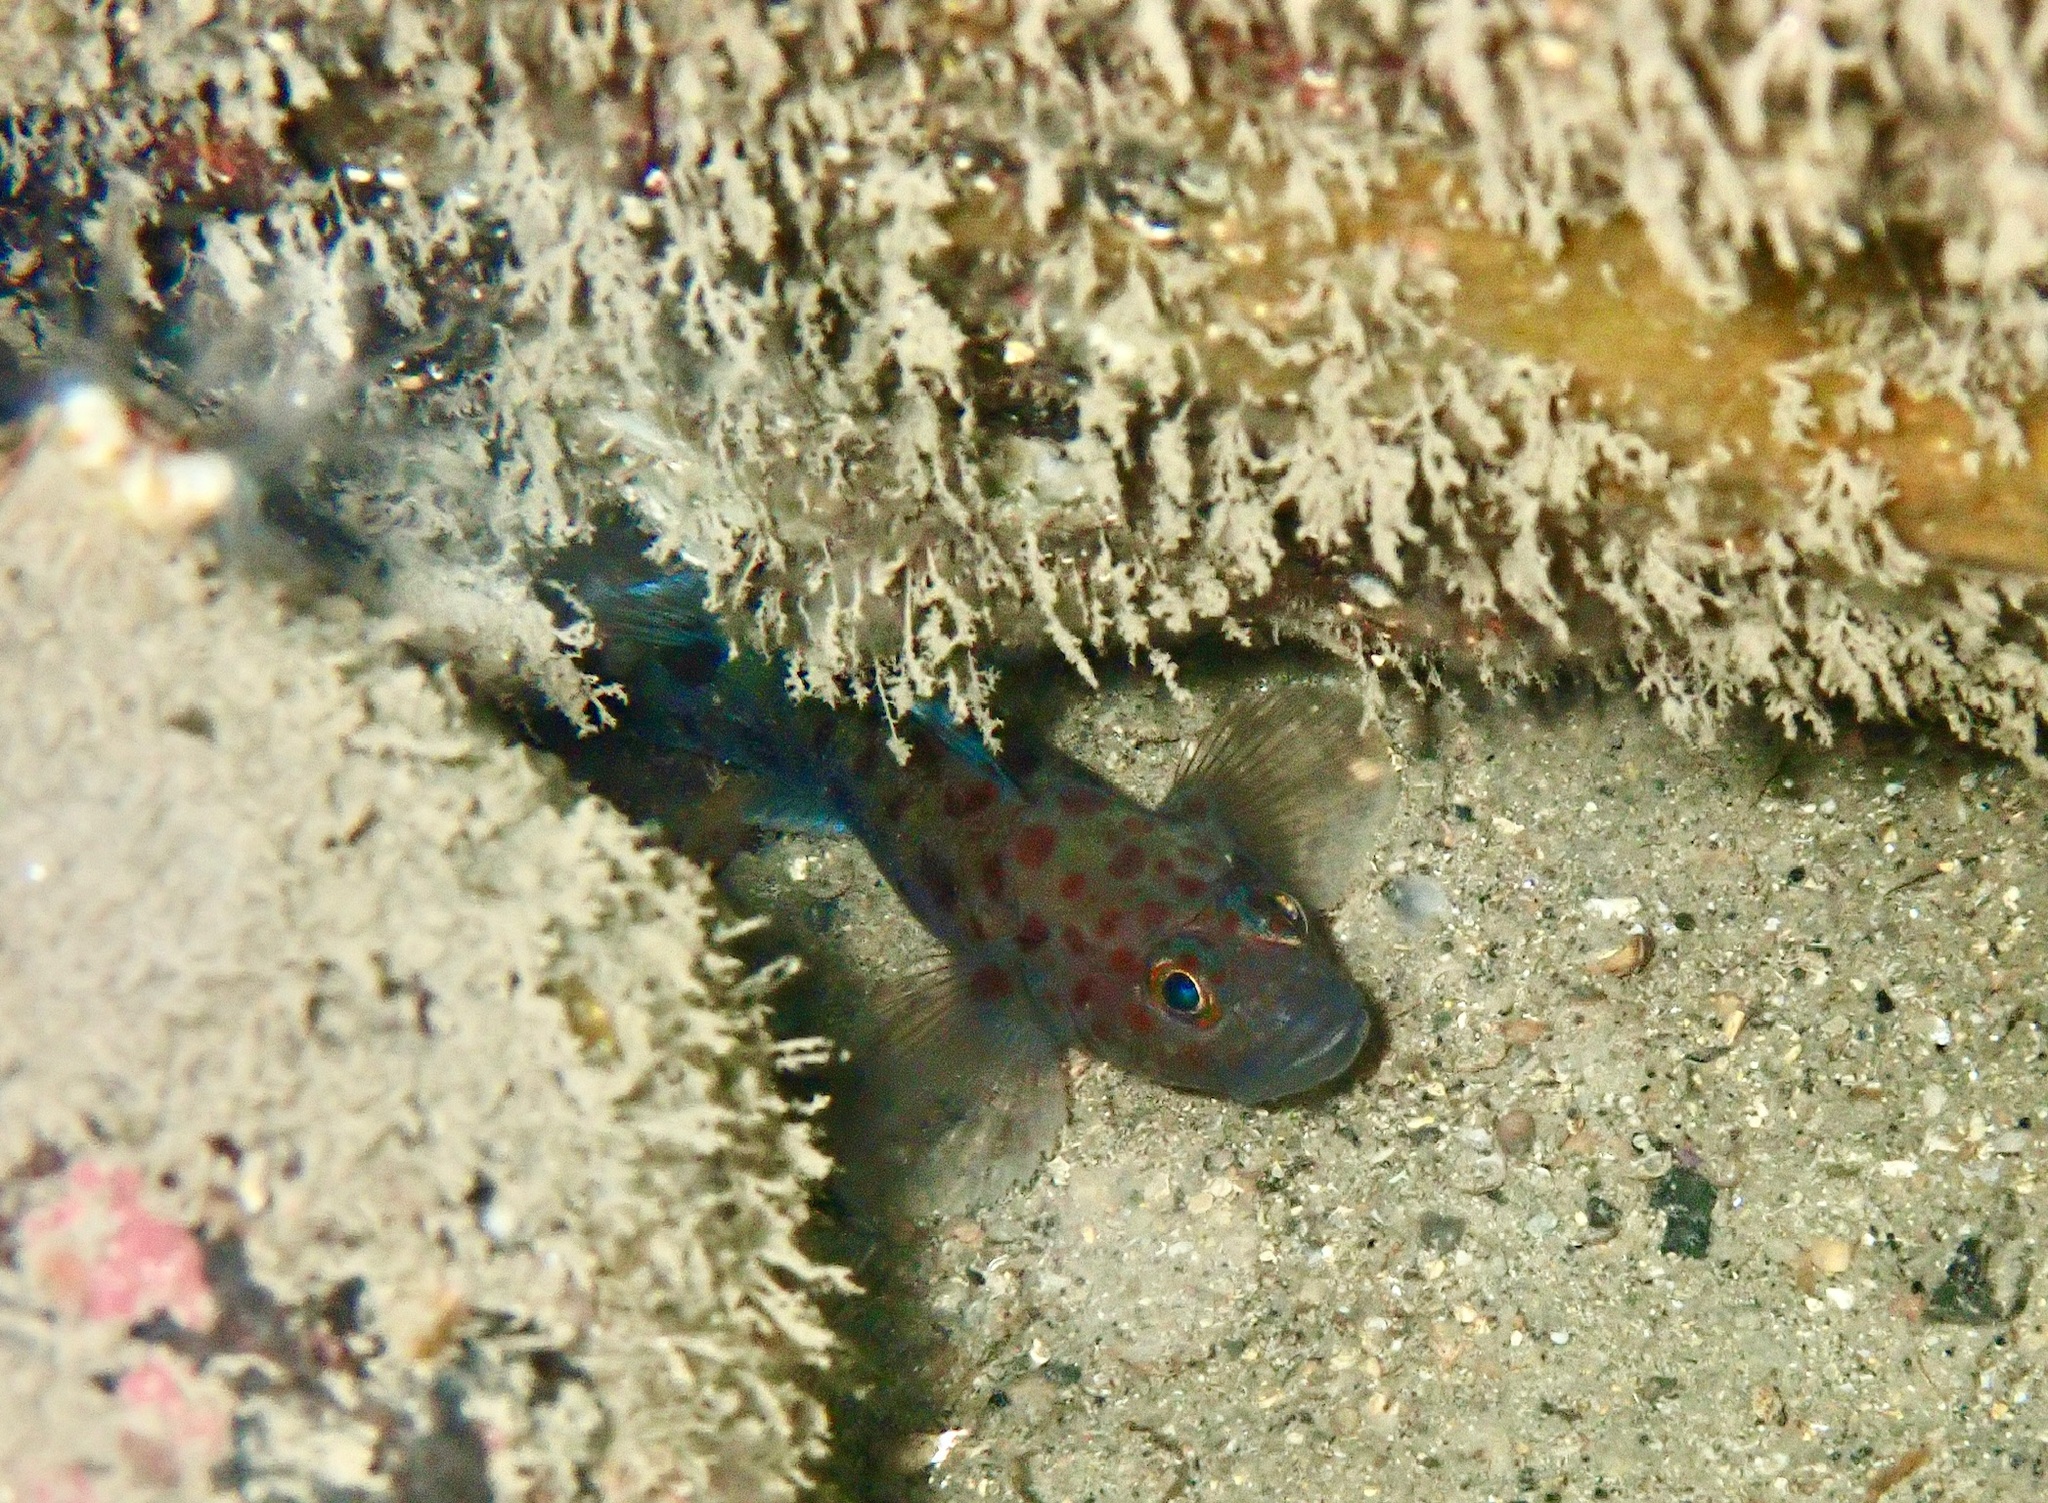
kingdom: Animalia
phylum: Chordata
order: Perciformes
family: Gobiidae
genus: Thorogobius
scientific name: Thorogobius ephippiatus
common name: Leopard-spotted goby
